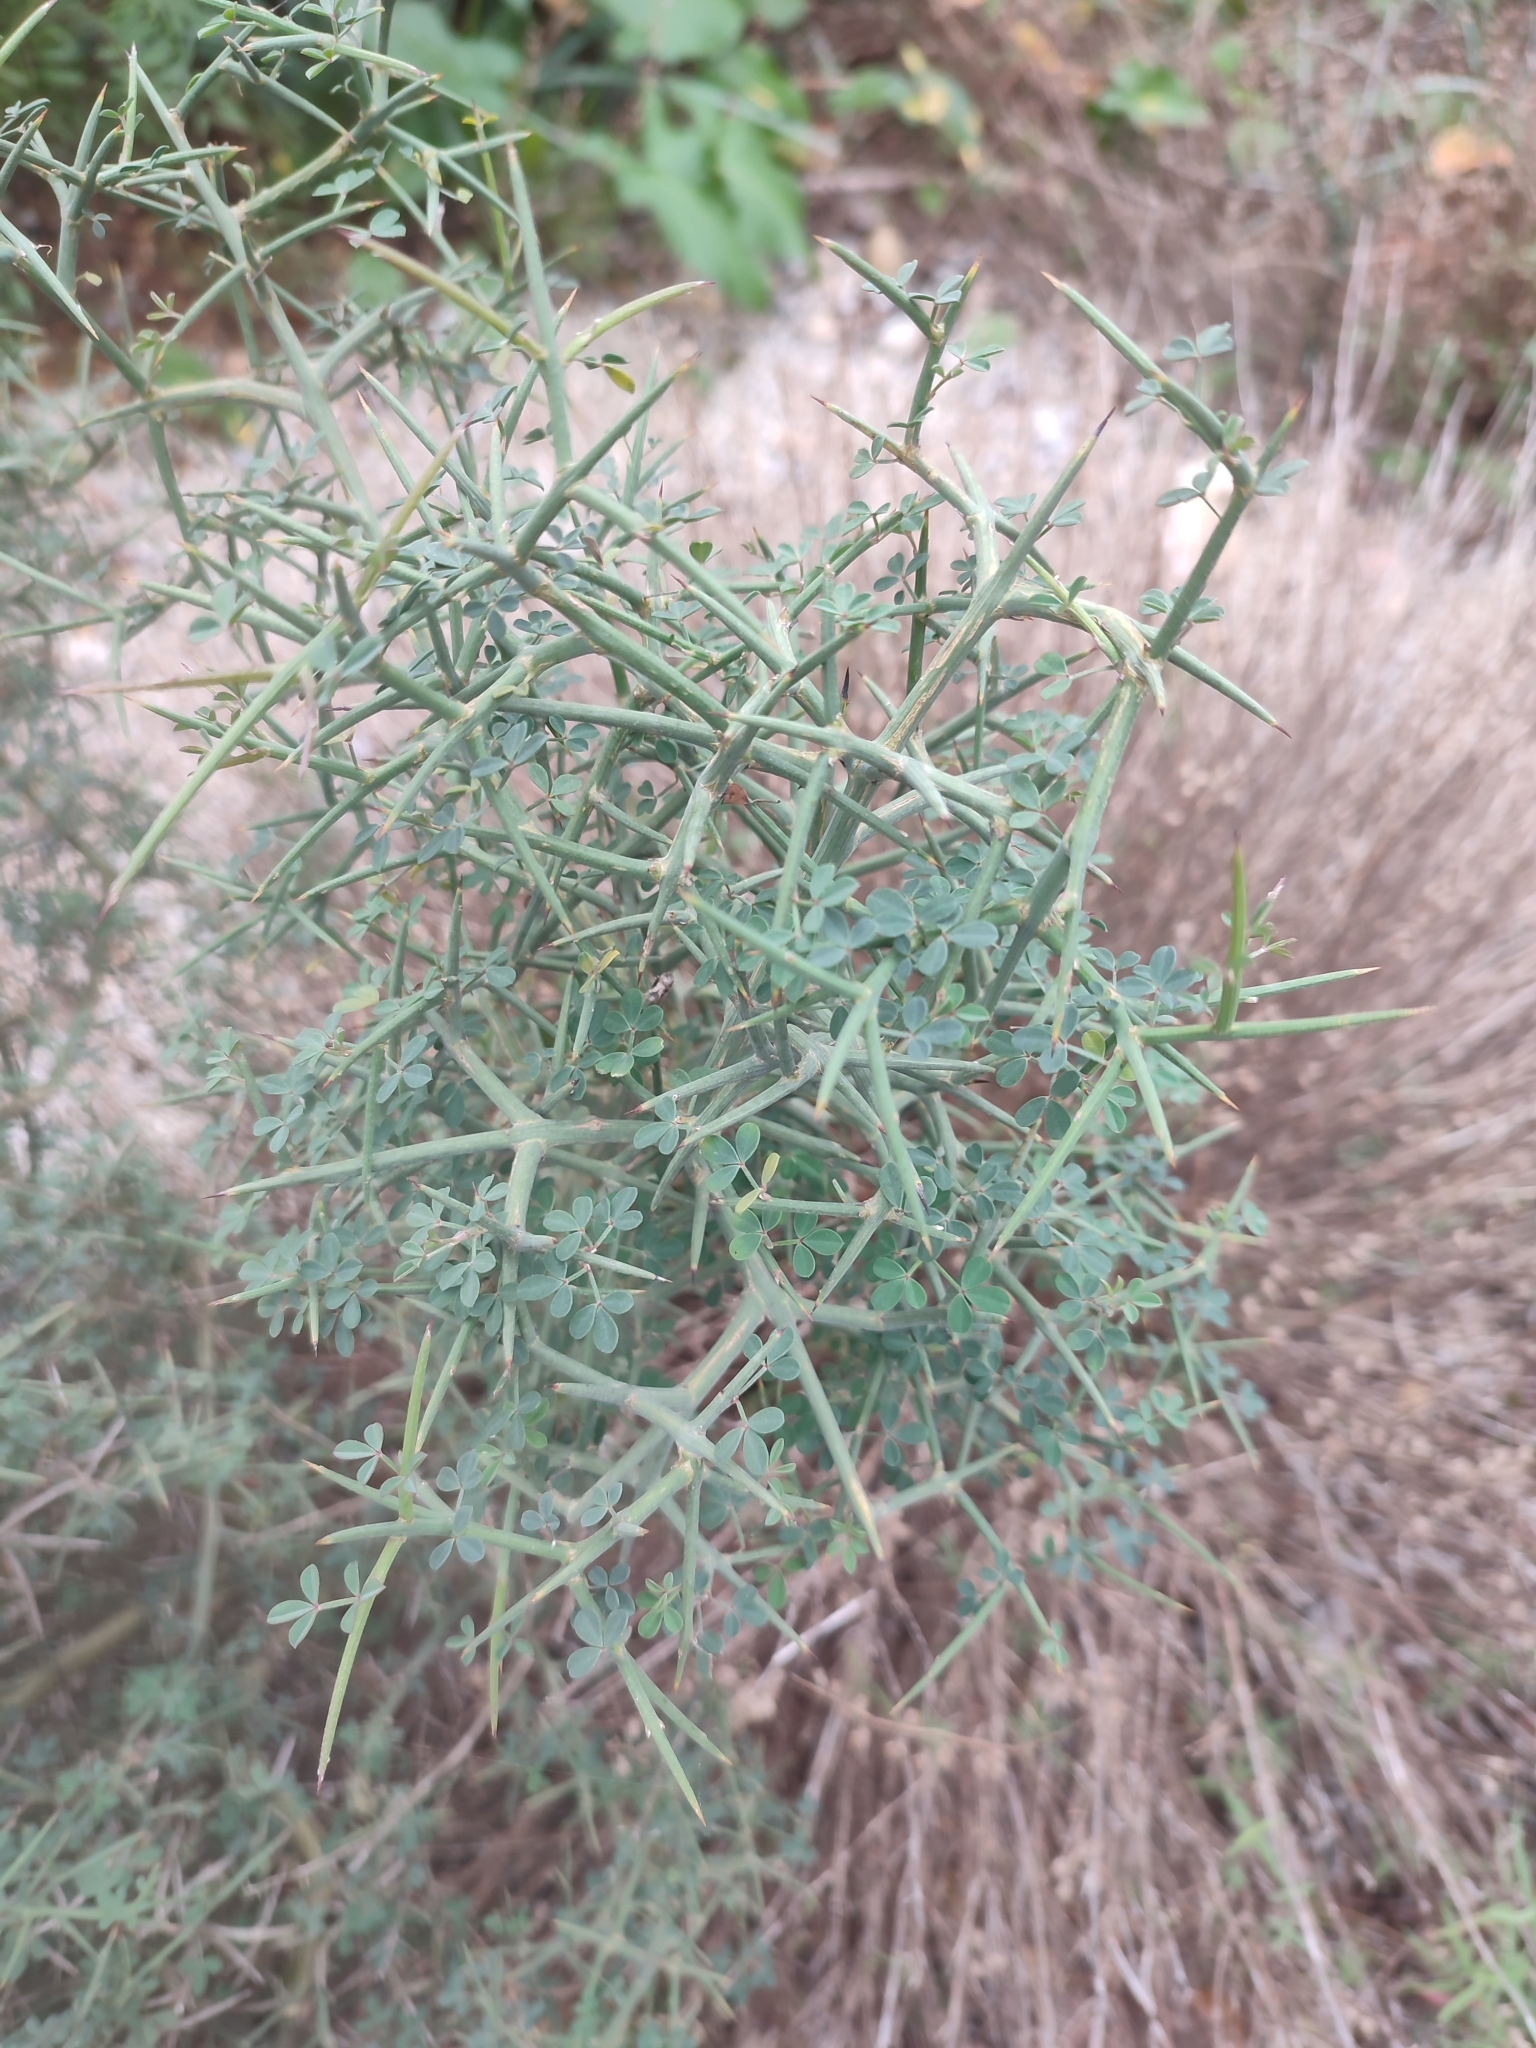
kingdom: Plantae
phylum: Tracheophyta
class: Magnoliopsida
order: Fabales
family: Fabaceae
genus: Calicotome
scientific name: Calicotome spinosa
